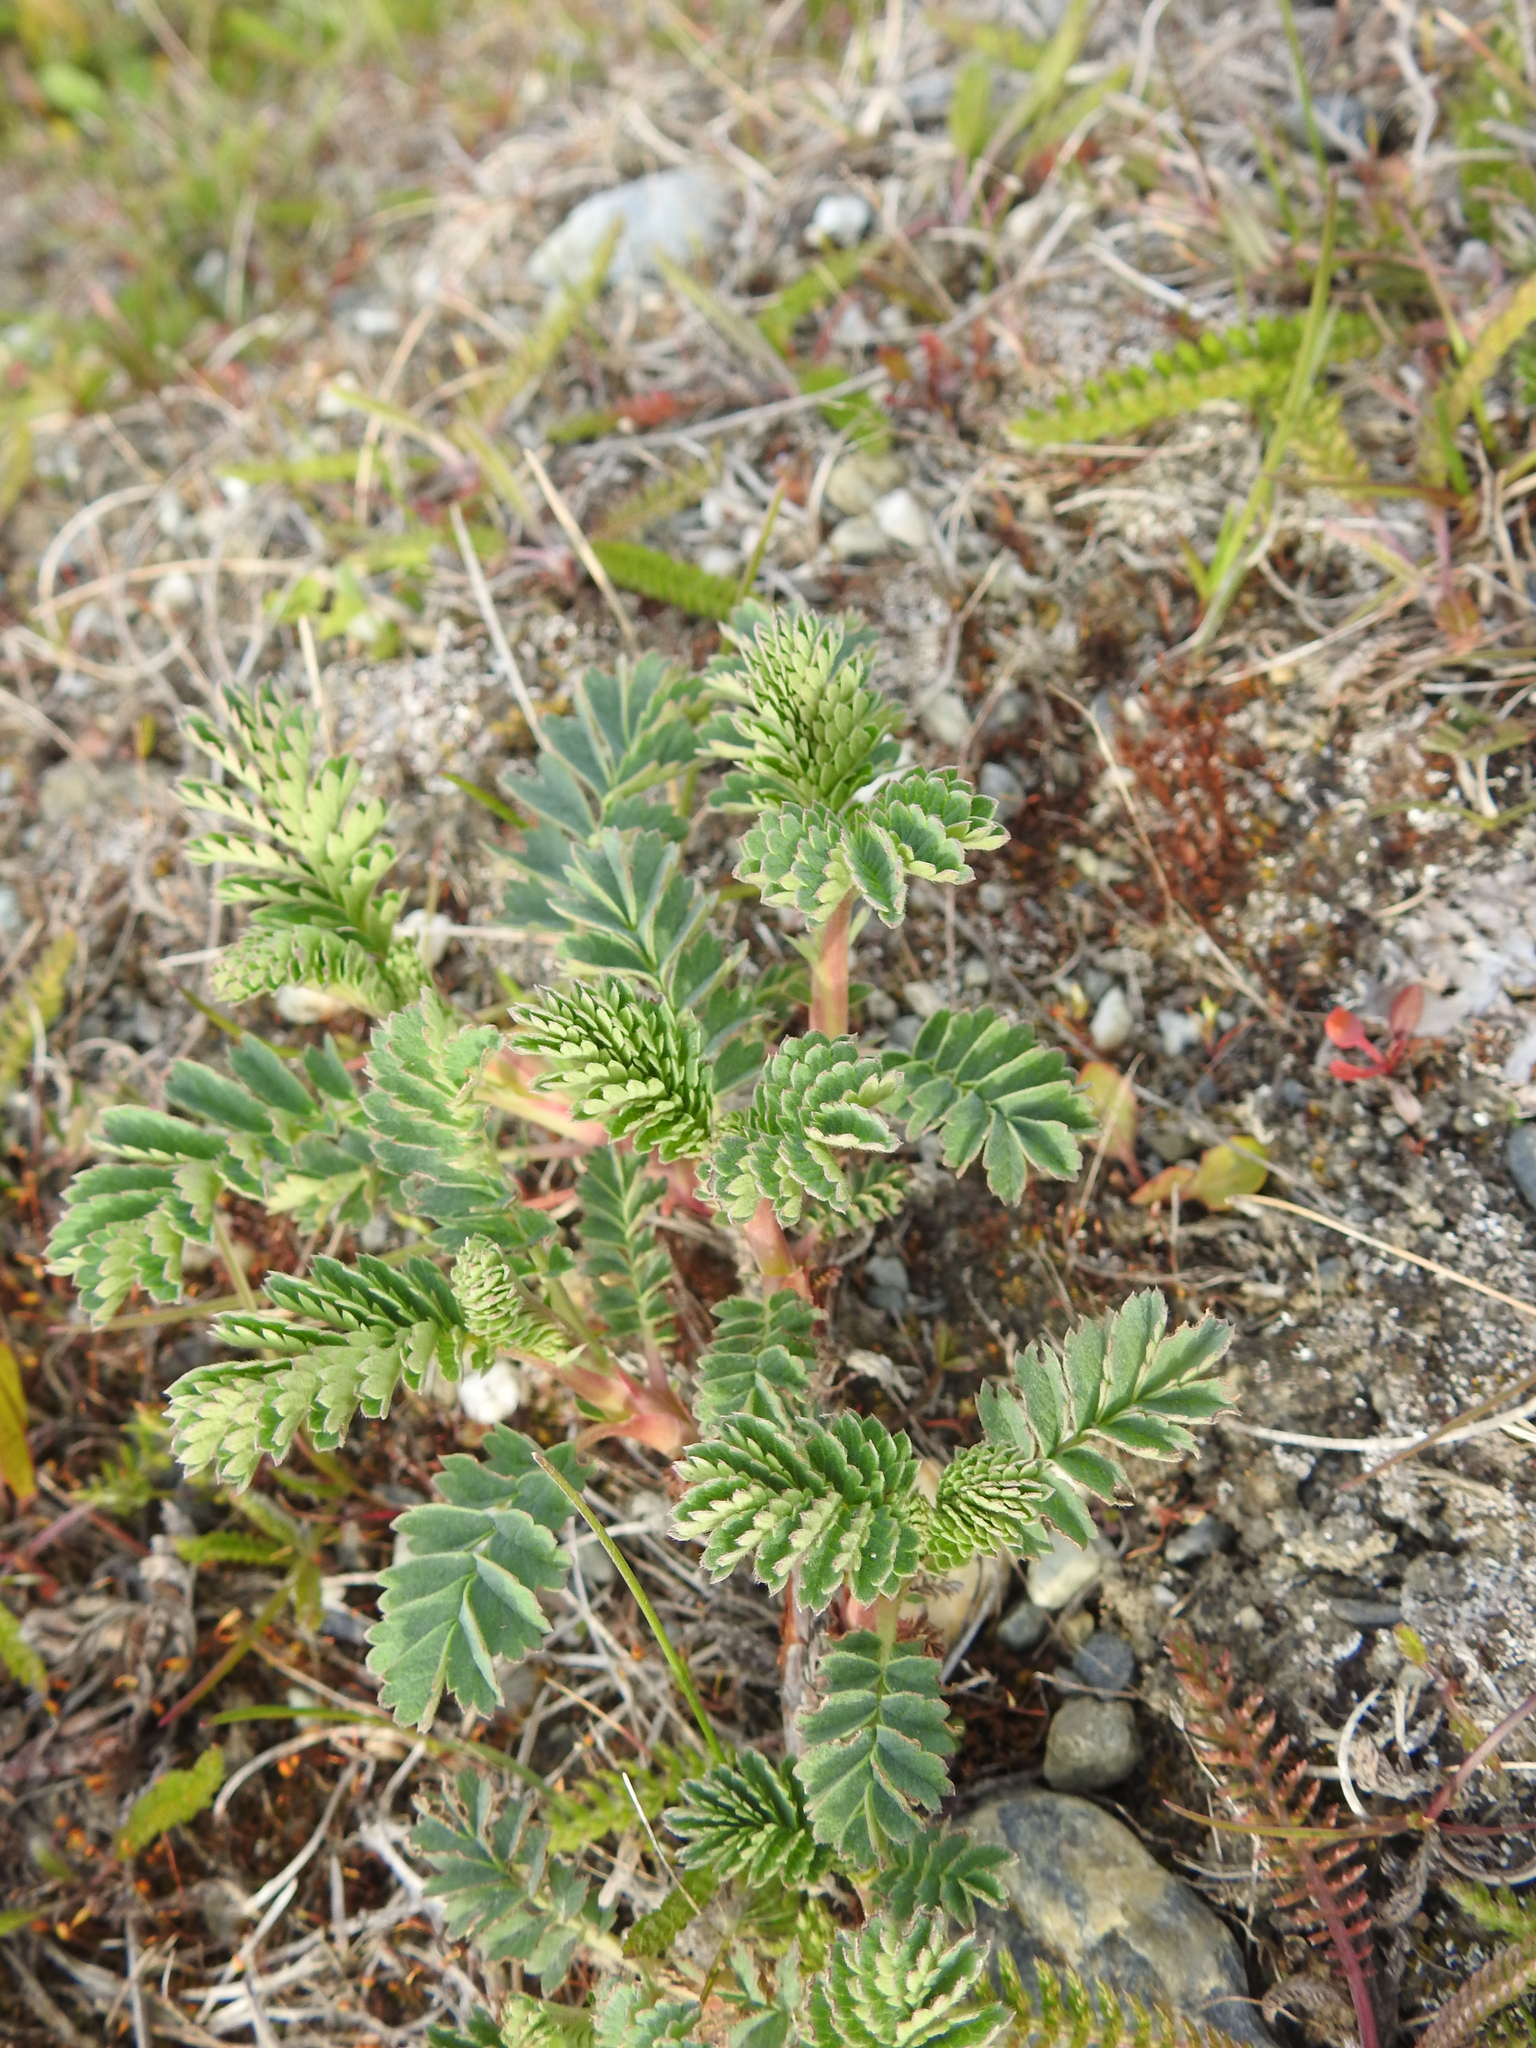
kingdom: Plantae
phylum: Tracheophyta
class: Magnoliopsida
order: Rosales
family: Rosaceae
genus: Acaena
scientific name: Acaena magellanica
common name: New zealand burr
